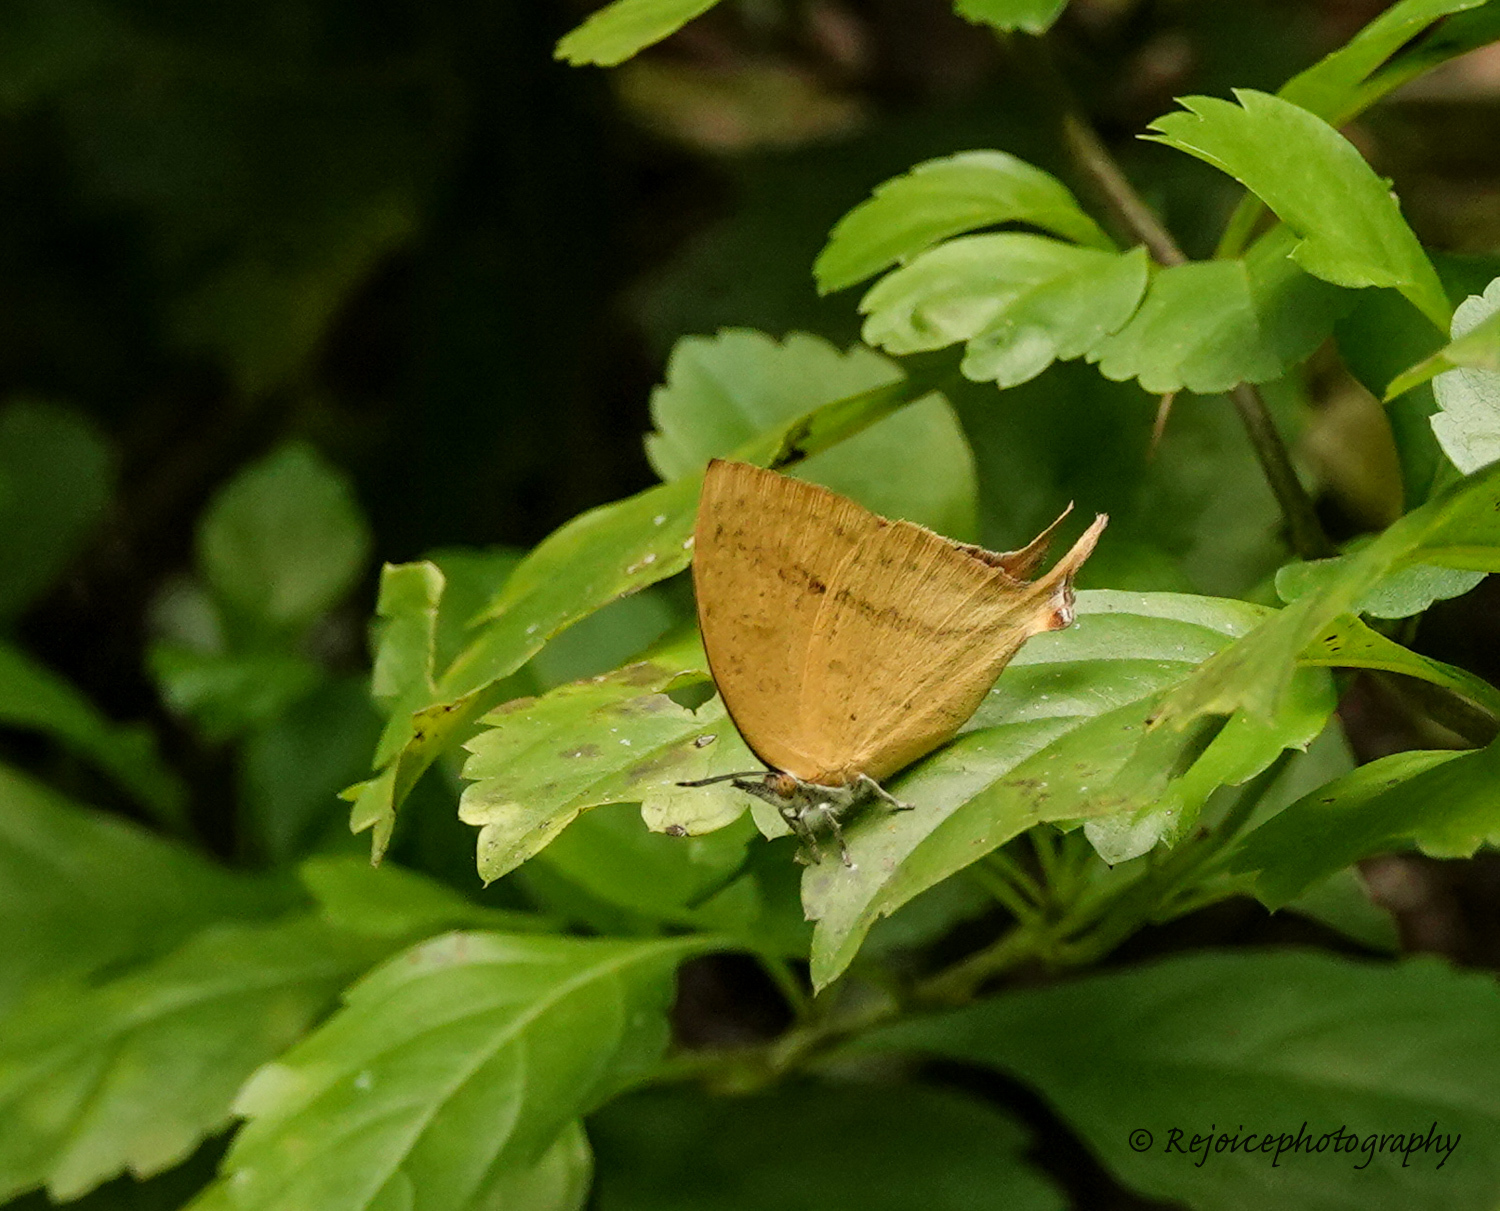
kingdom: Animalia
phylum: Arthropoda
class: Insecta
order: Lepidoptera
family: Lycaenidae
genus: Loxura
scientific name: Loxura atymnus
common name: Common yamfly
